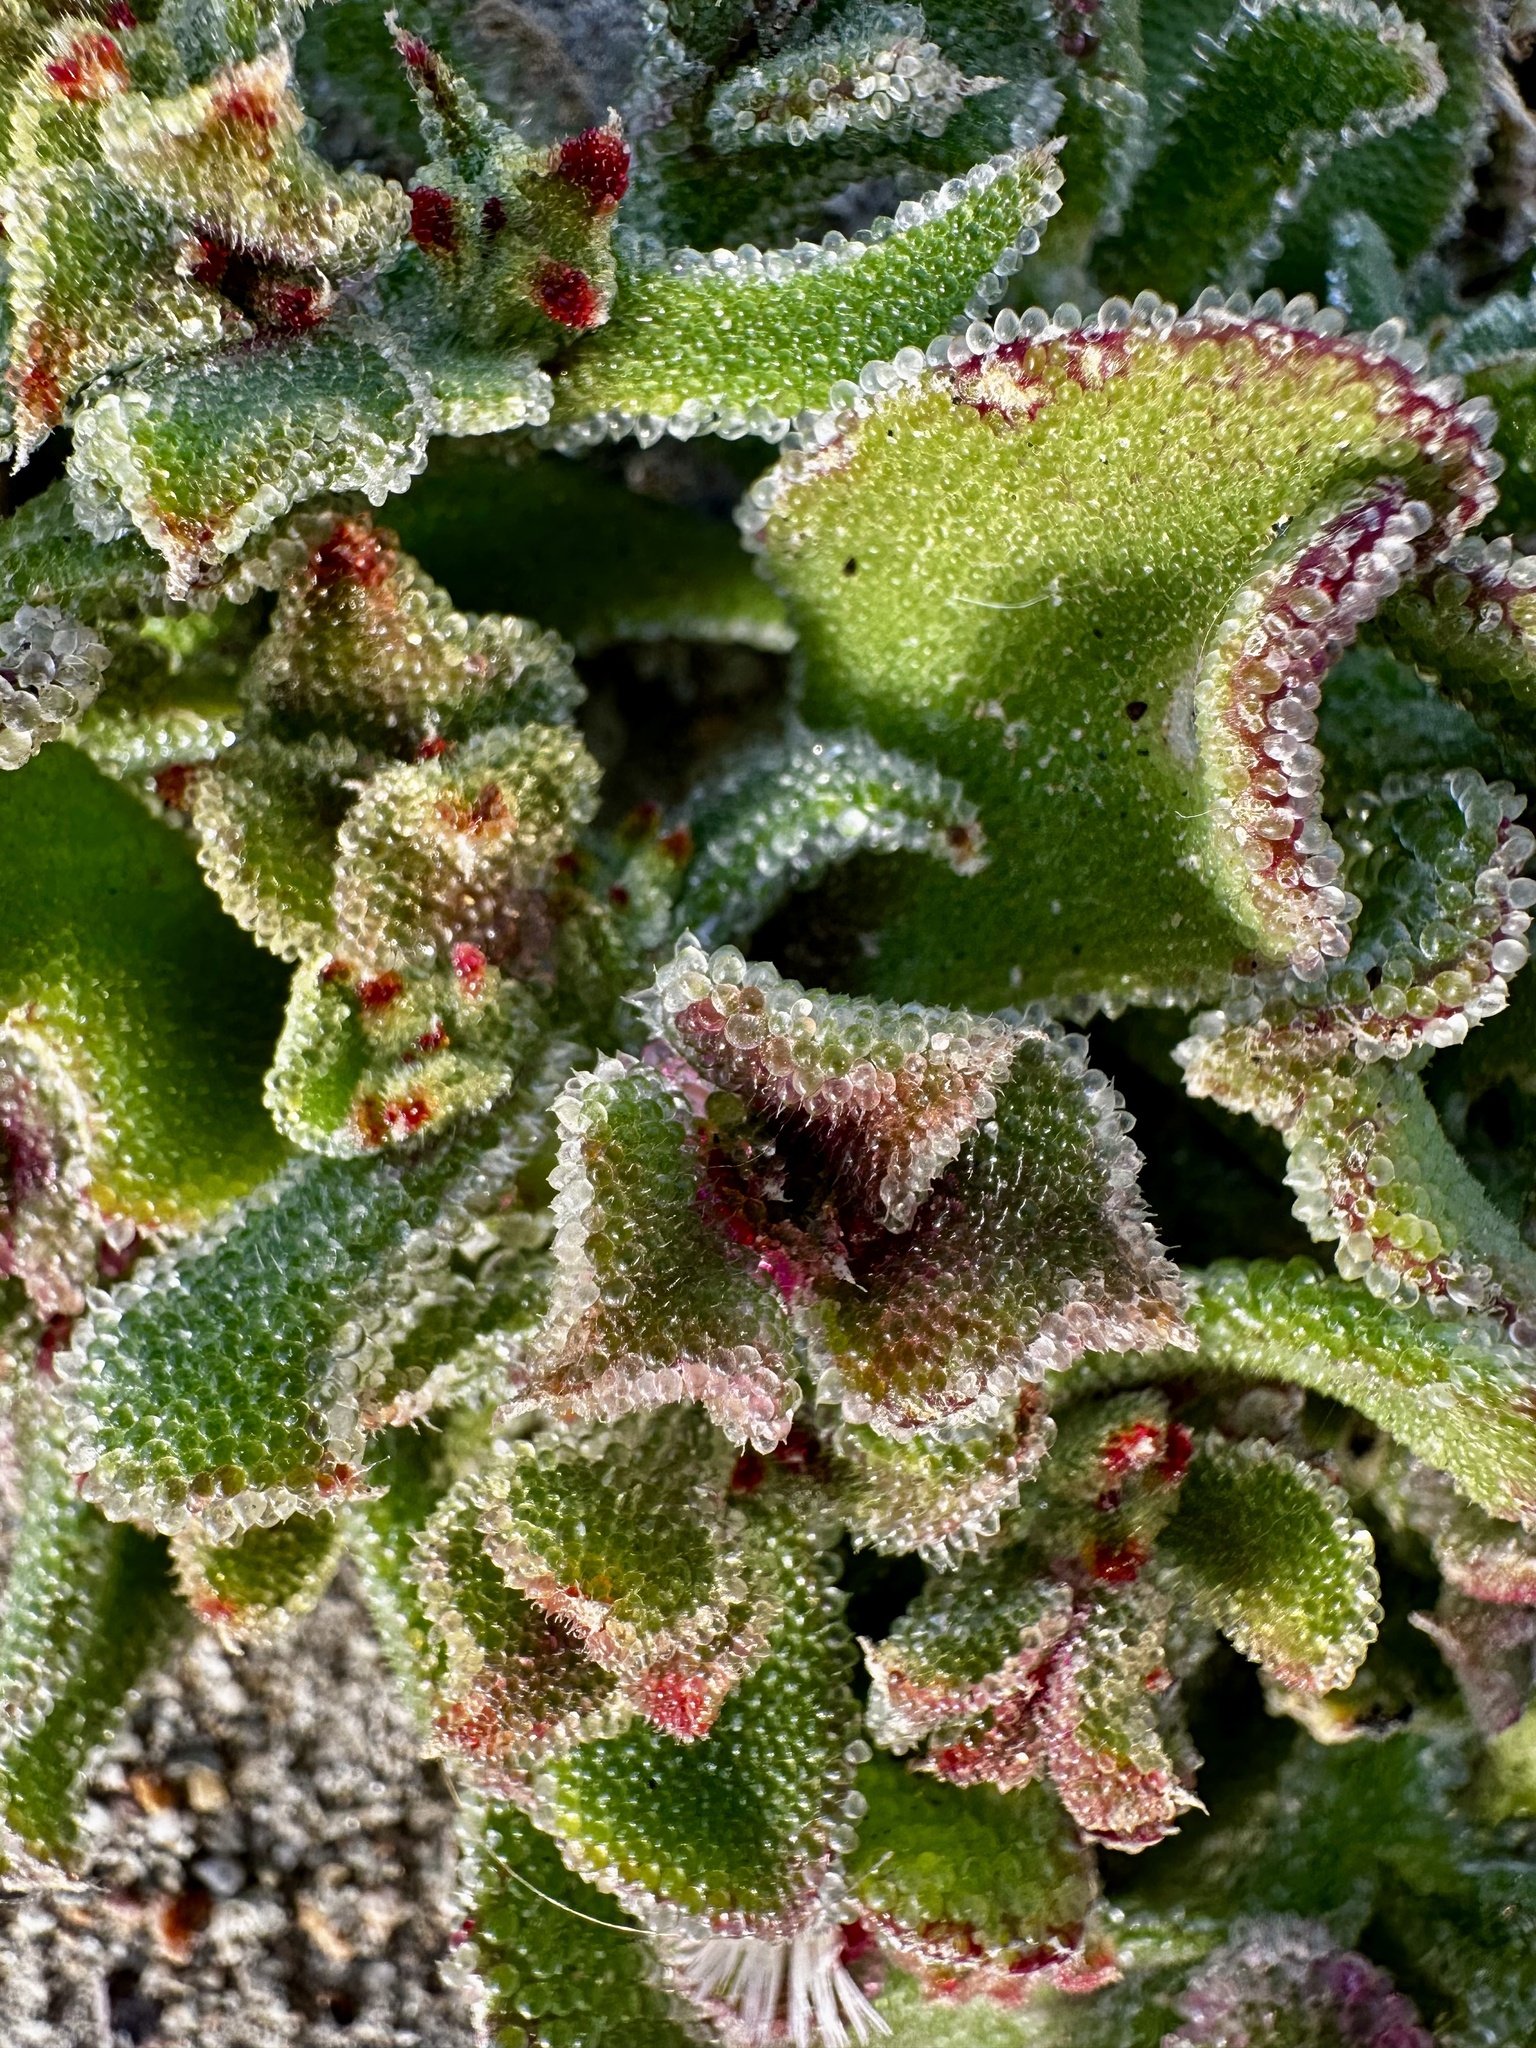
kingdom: Plantae
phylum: Tracheophyta
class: Magnoliopsida
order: Caryophyllales
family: Aizoaceae
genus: Mesembryanthemum
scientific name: Mesembryanthemum crystallinum
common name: Common iceplant
